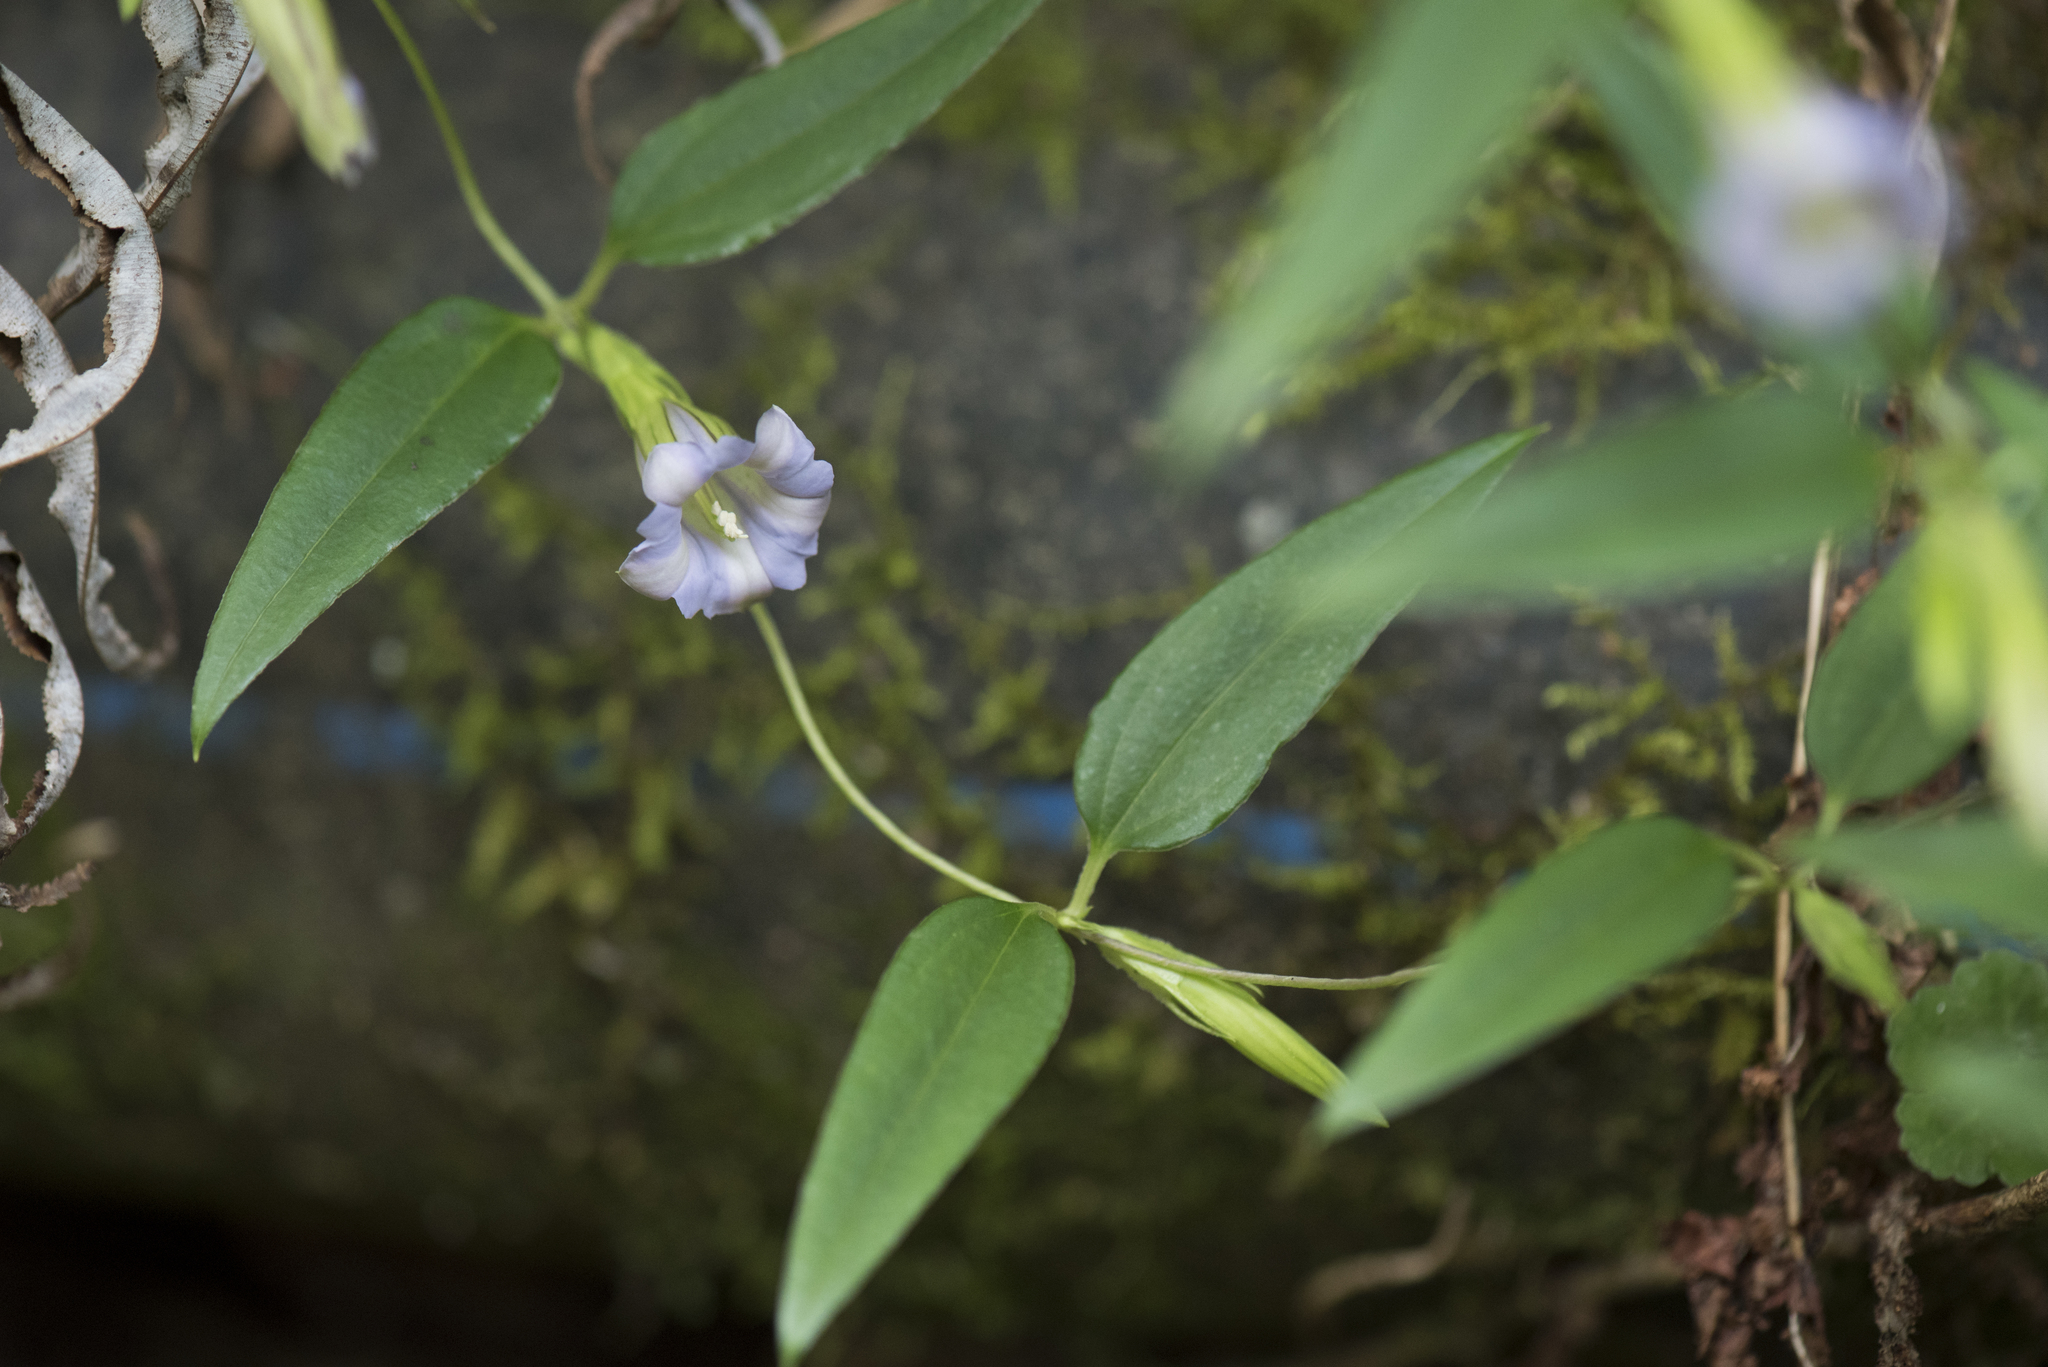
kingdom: Plantae
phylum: Tracheophyta
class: Magnoliopsida
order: Gentianales
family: Gentianaceae
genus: Tripterospermum
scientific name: Tripterospermum lanceolatum
